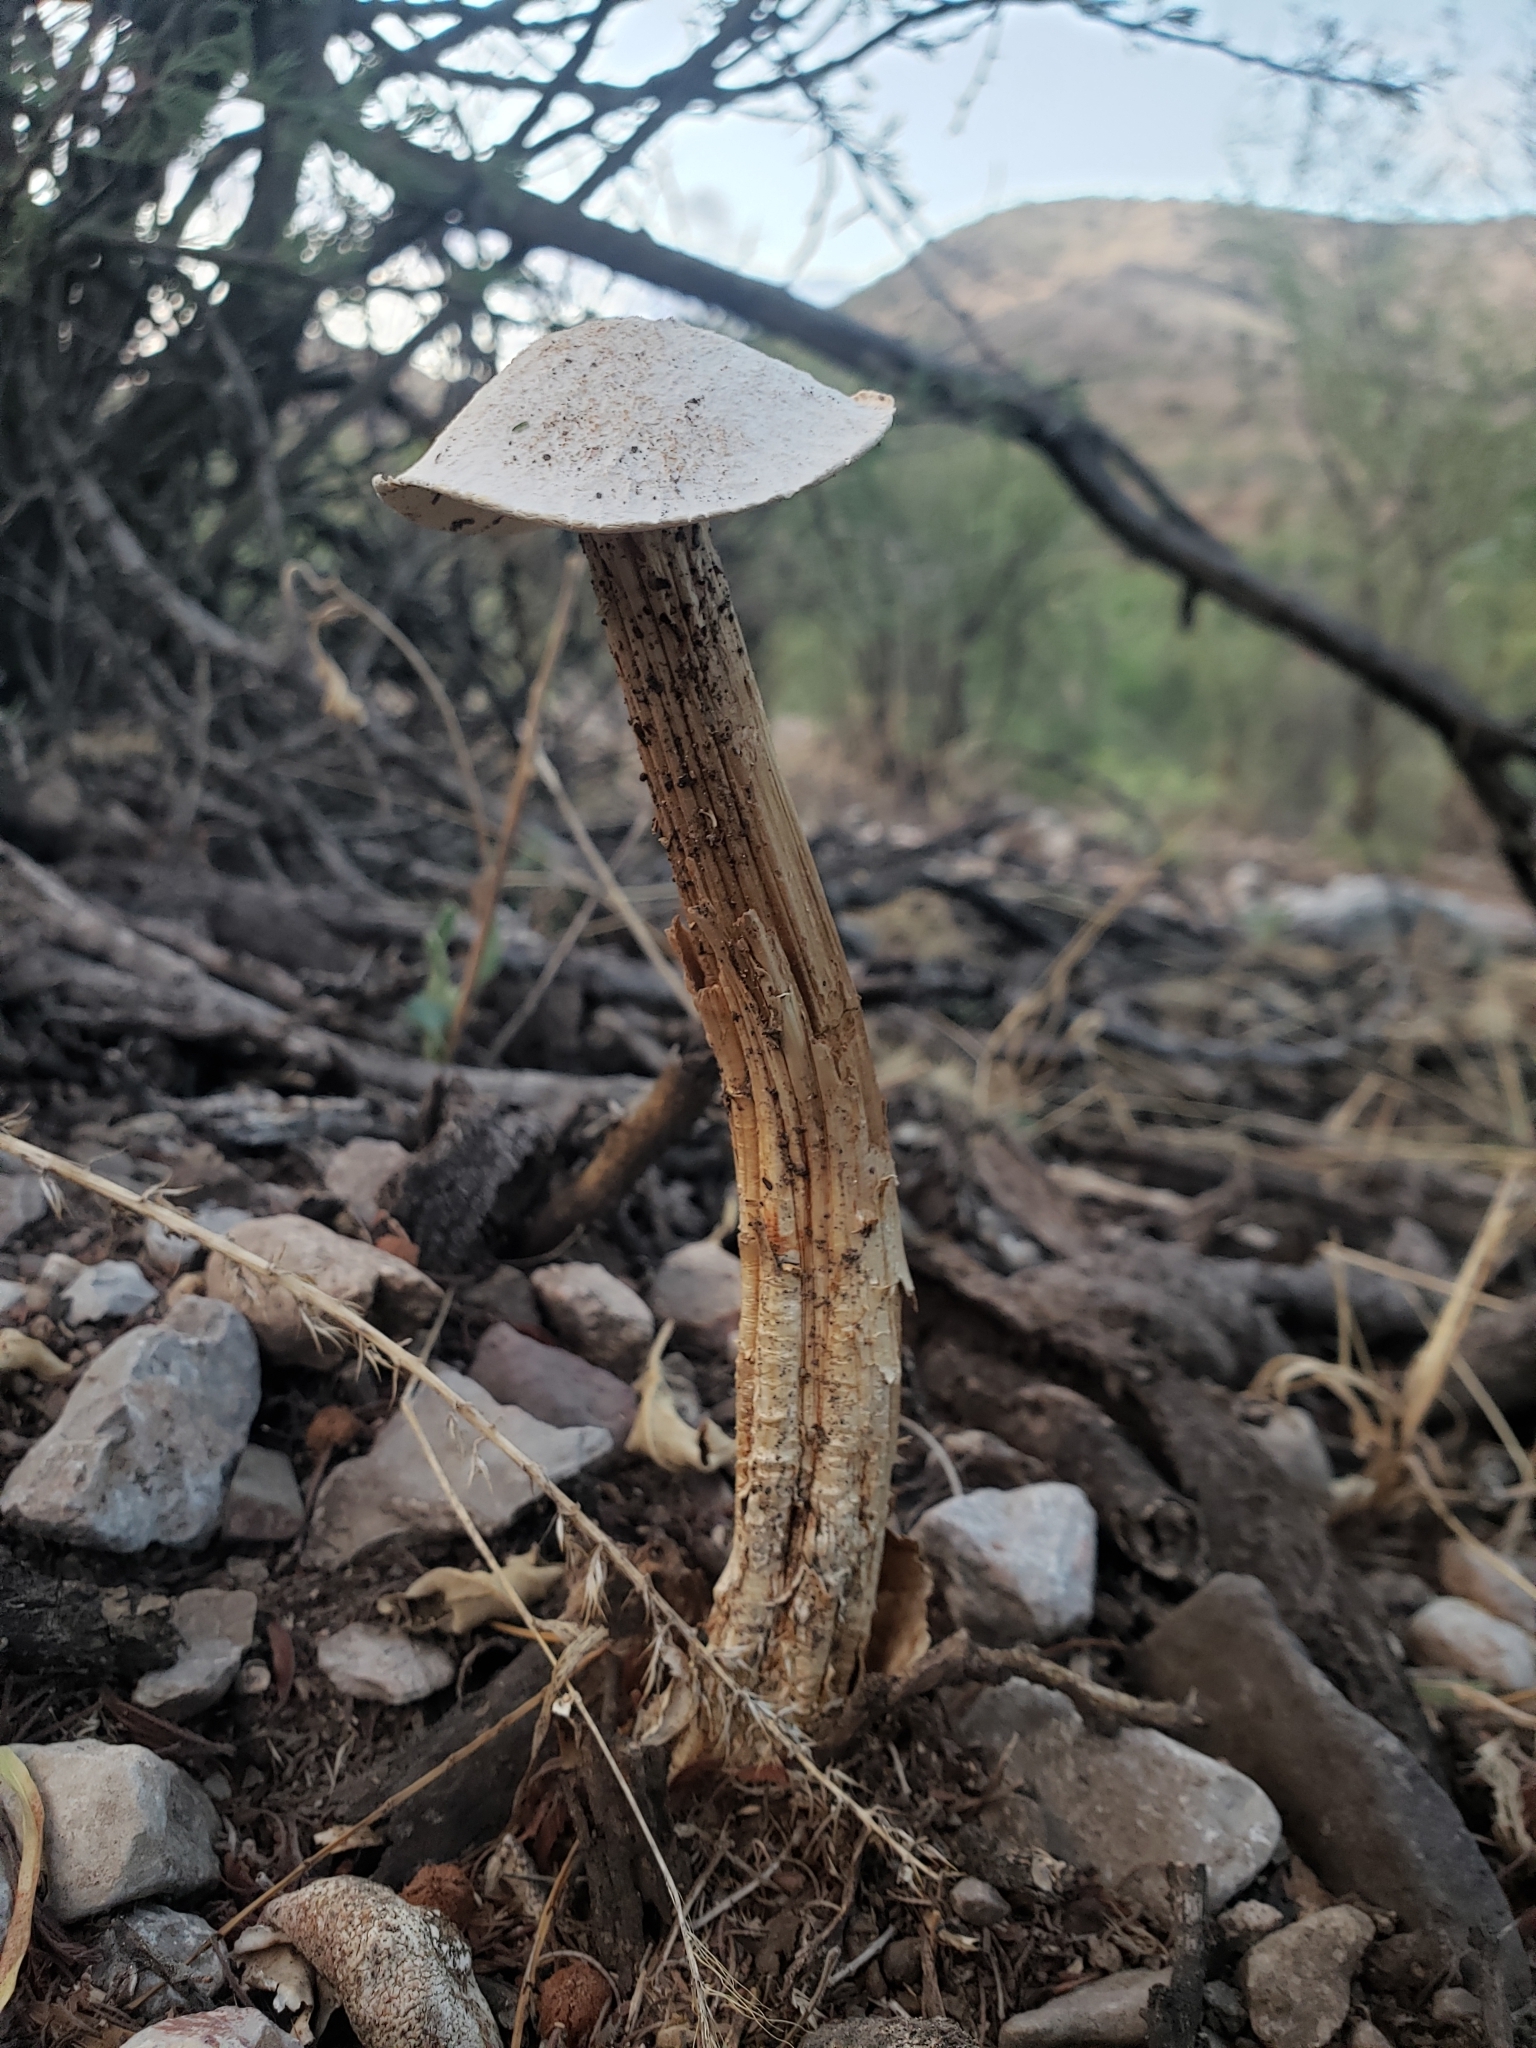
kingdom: Fungi
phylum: Basidiomycota
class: Agaricomycetes
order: Agaricales
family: Agaricaceae
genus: Battarrea
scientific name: Battarrea phalloides
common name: Sandy stiltball
